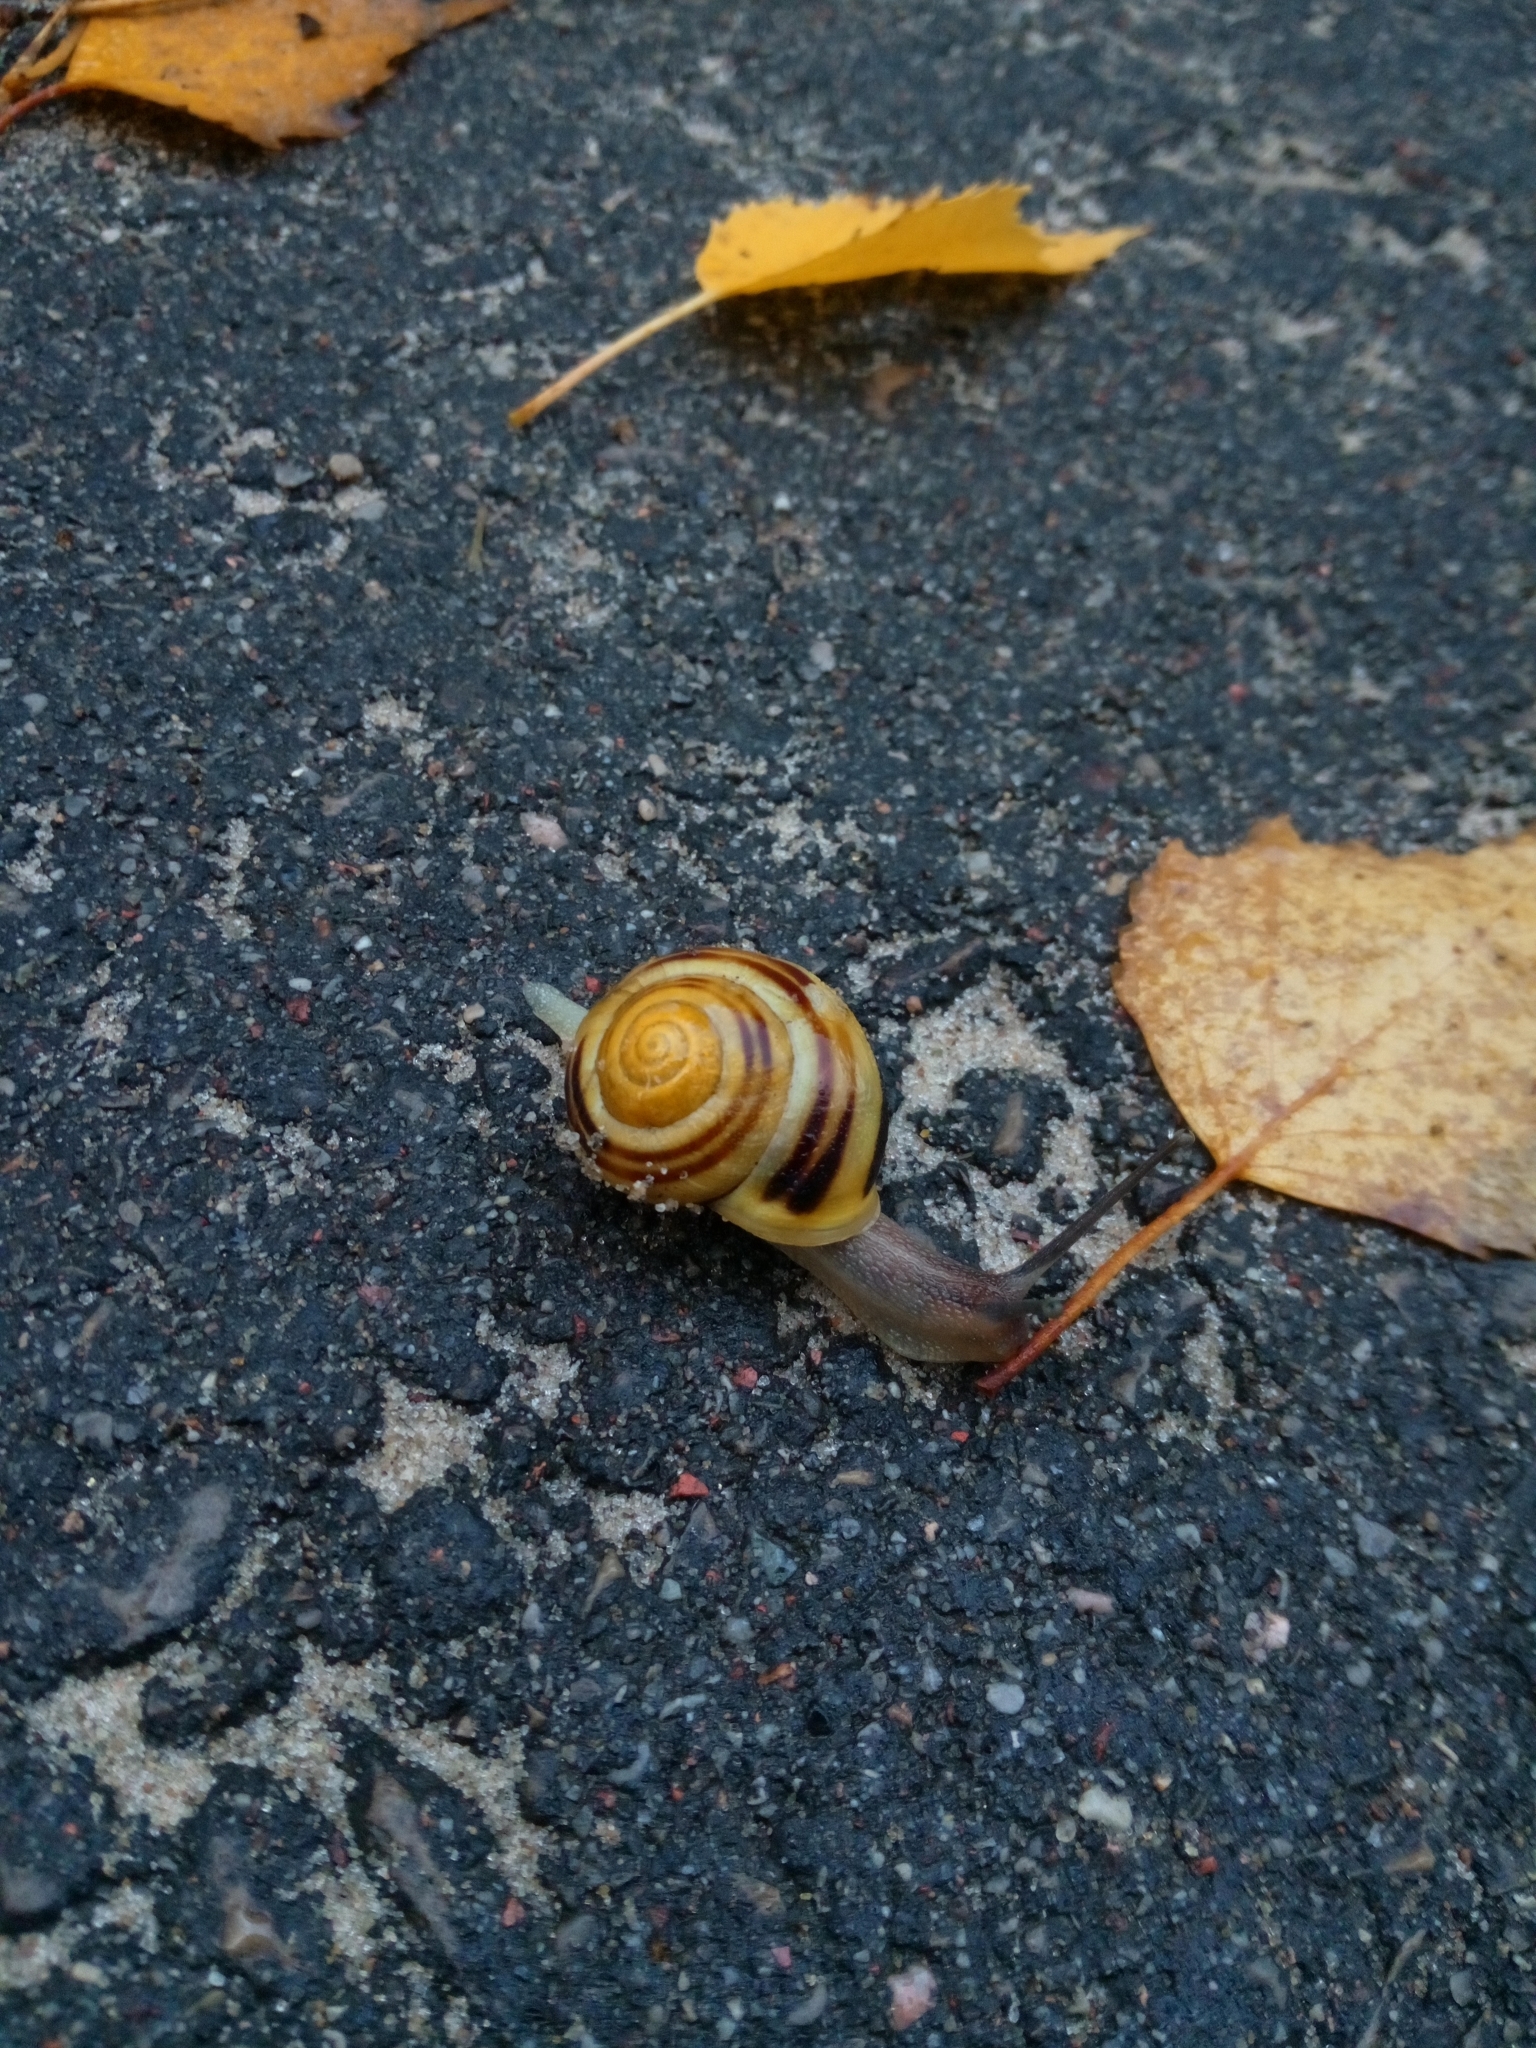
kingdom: Animalia
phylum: Mollusca
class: Gastropoda
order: Stylommatophora
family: Helicidae
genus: Cepaea
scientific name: Cepaea hortensis
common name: White-lip gardensnail
